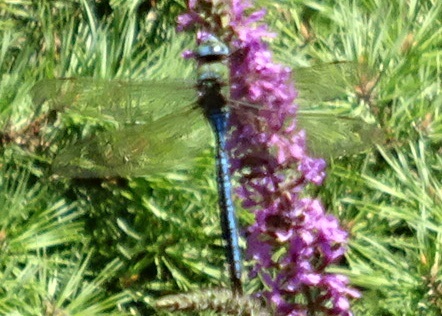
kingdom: Animalia
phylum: Arthropoda
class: Insecta
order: Odonata
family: Aeshnidae
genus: Anax
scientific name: Anax imperator
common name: Emperor dragonfly
